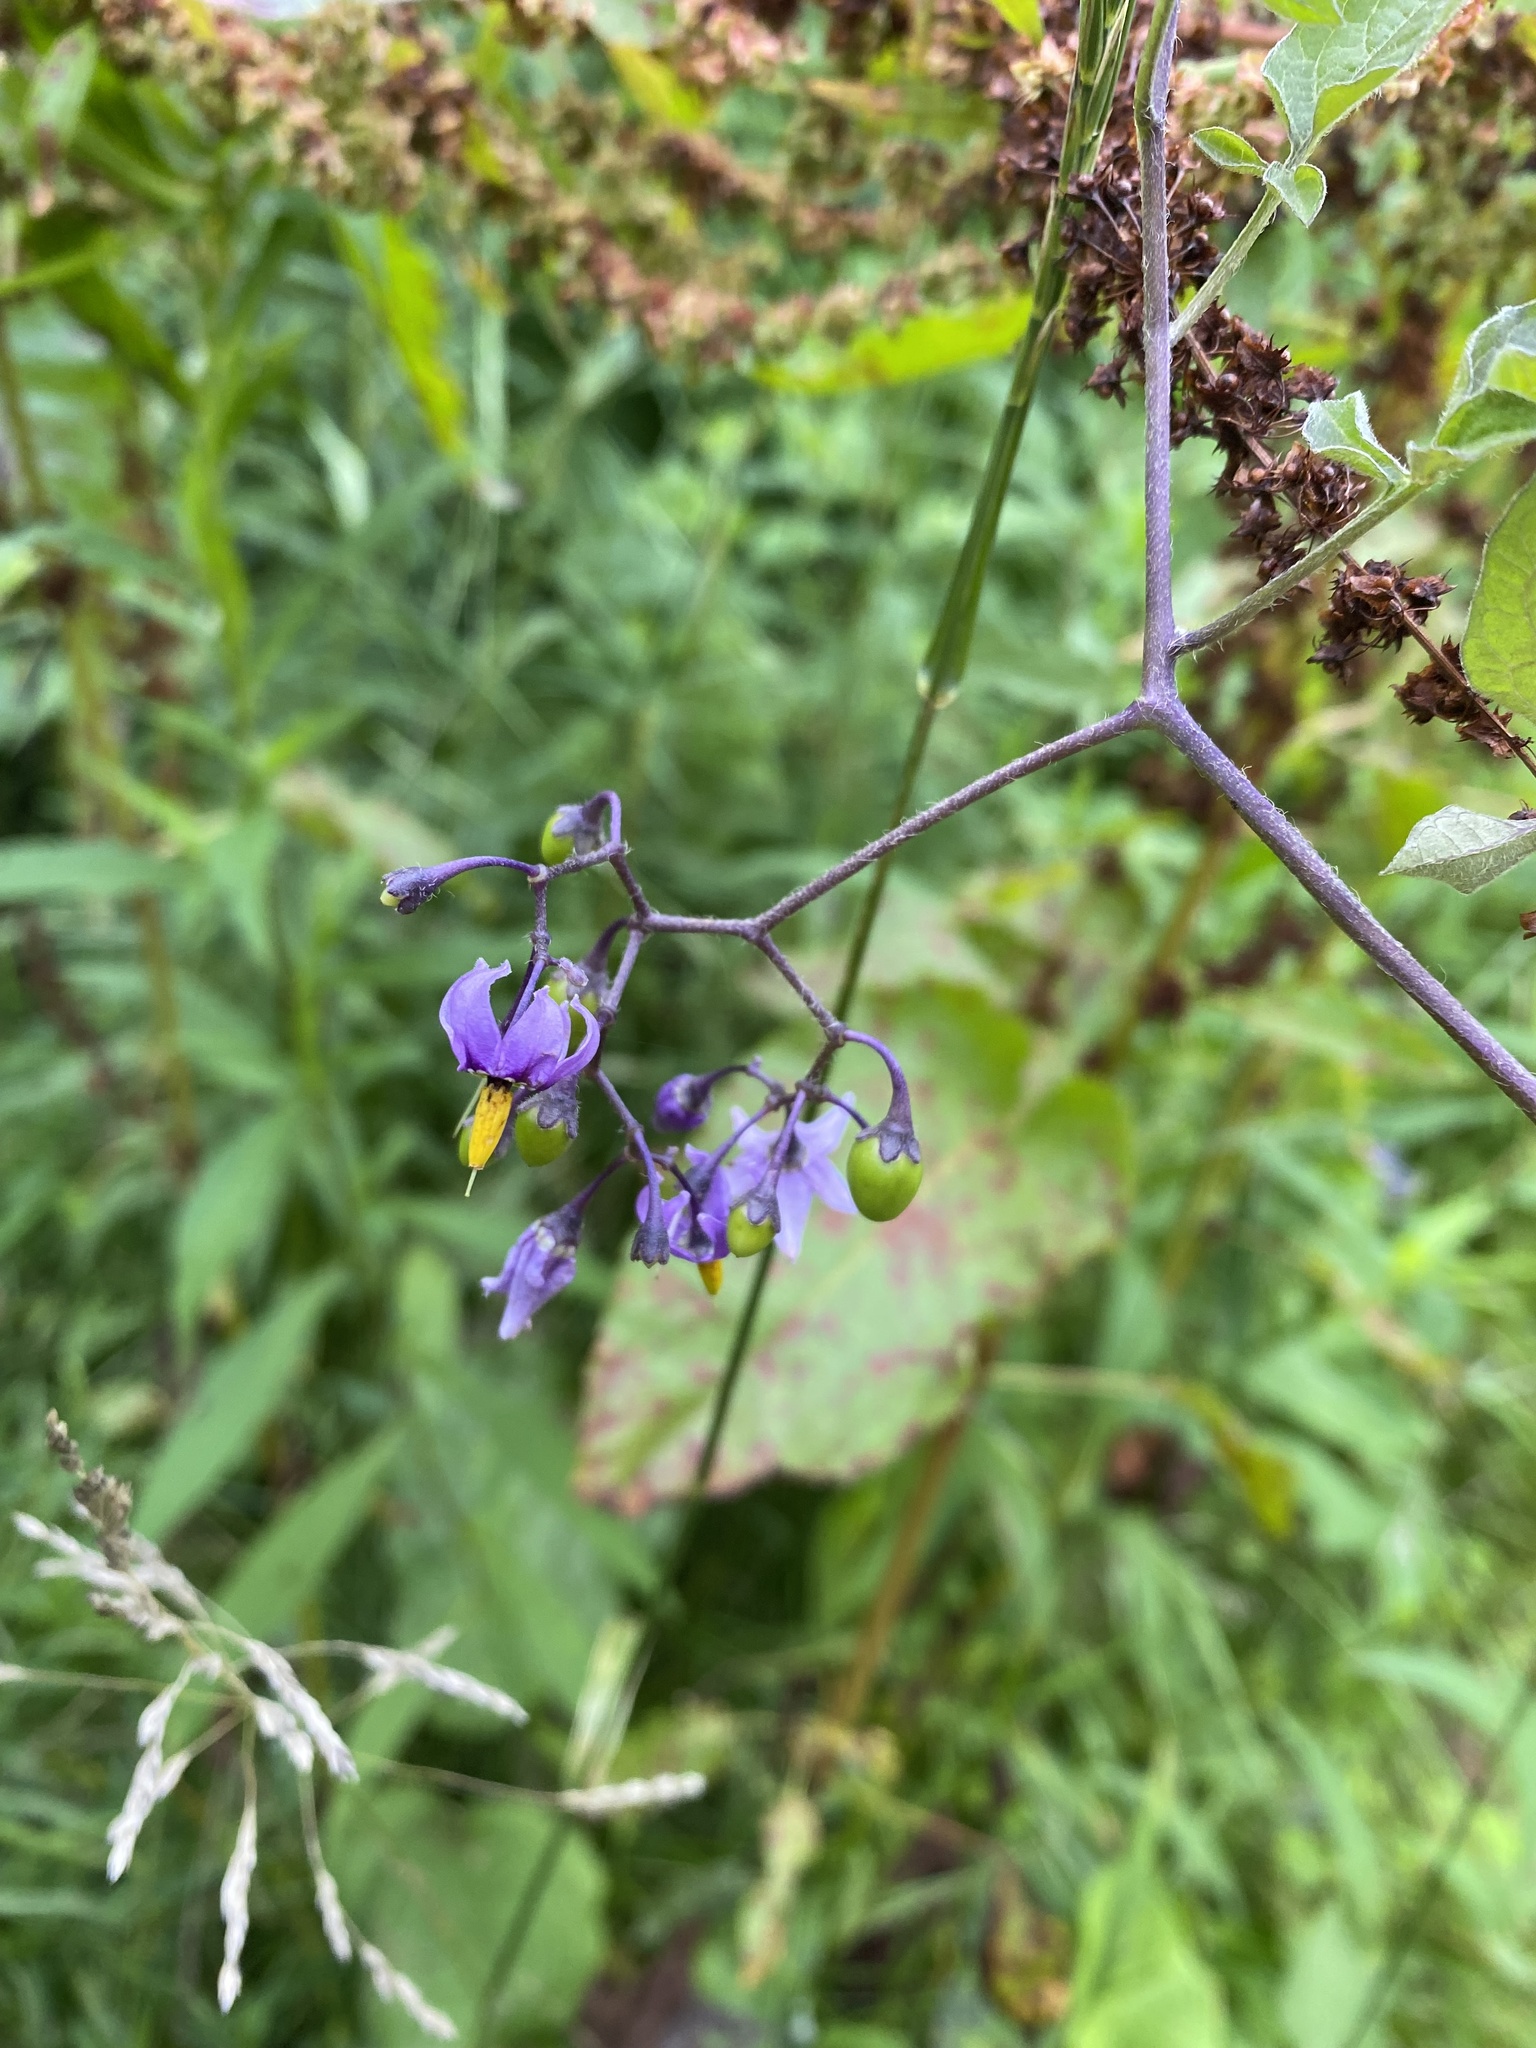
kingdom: Plantae
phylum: Tracheophyta
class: Magnoliopsida
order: Solanales
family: Solanaceae
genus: Solanum
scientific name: Solanum dulcamara
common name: Climbing nightshade
